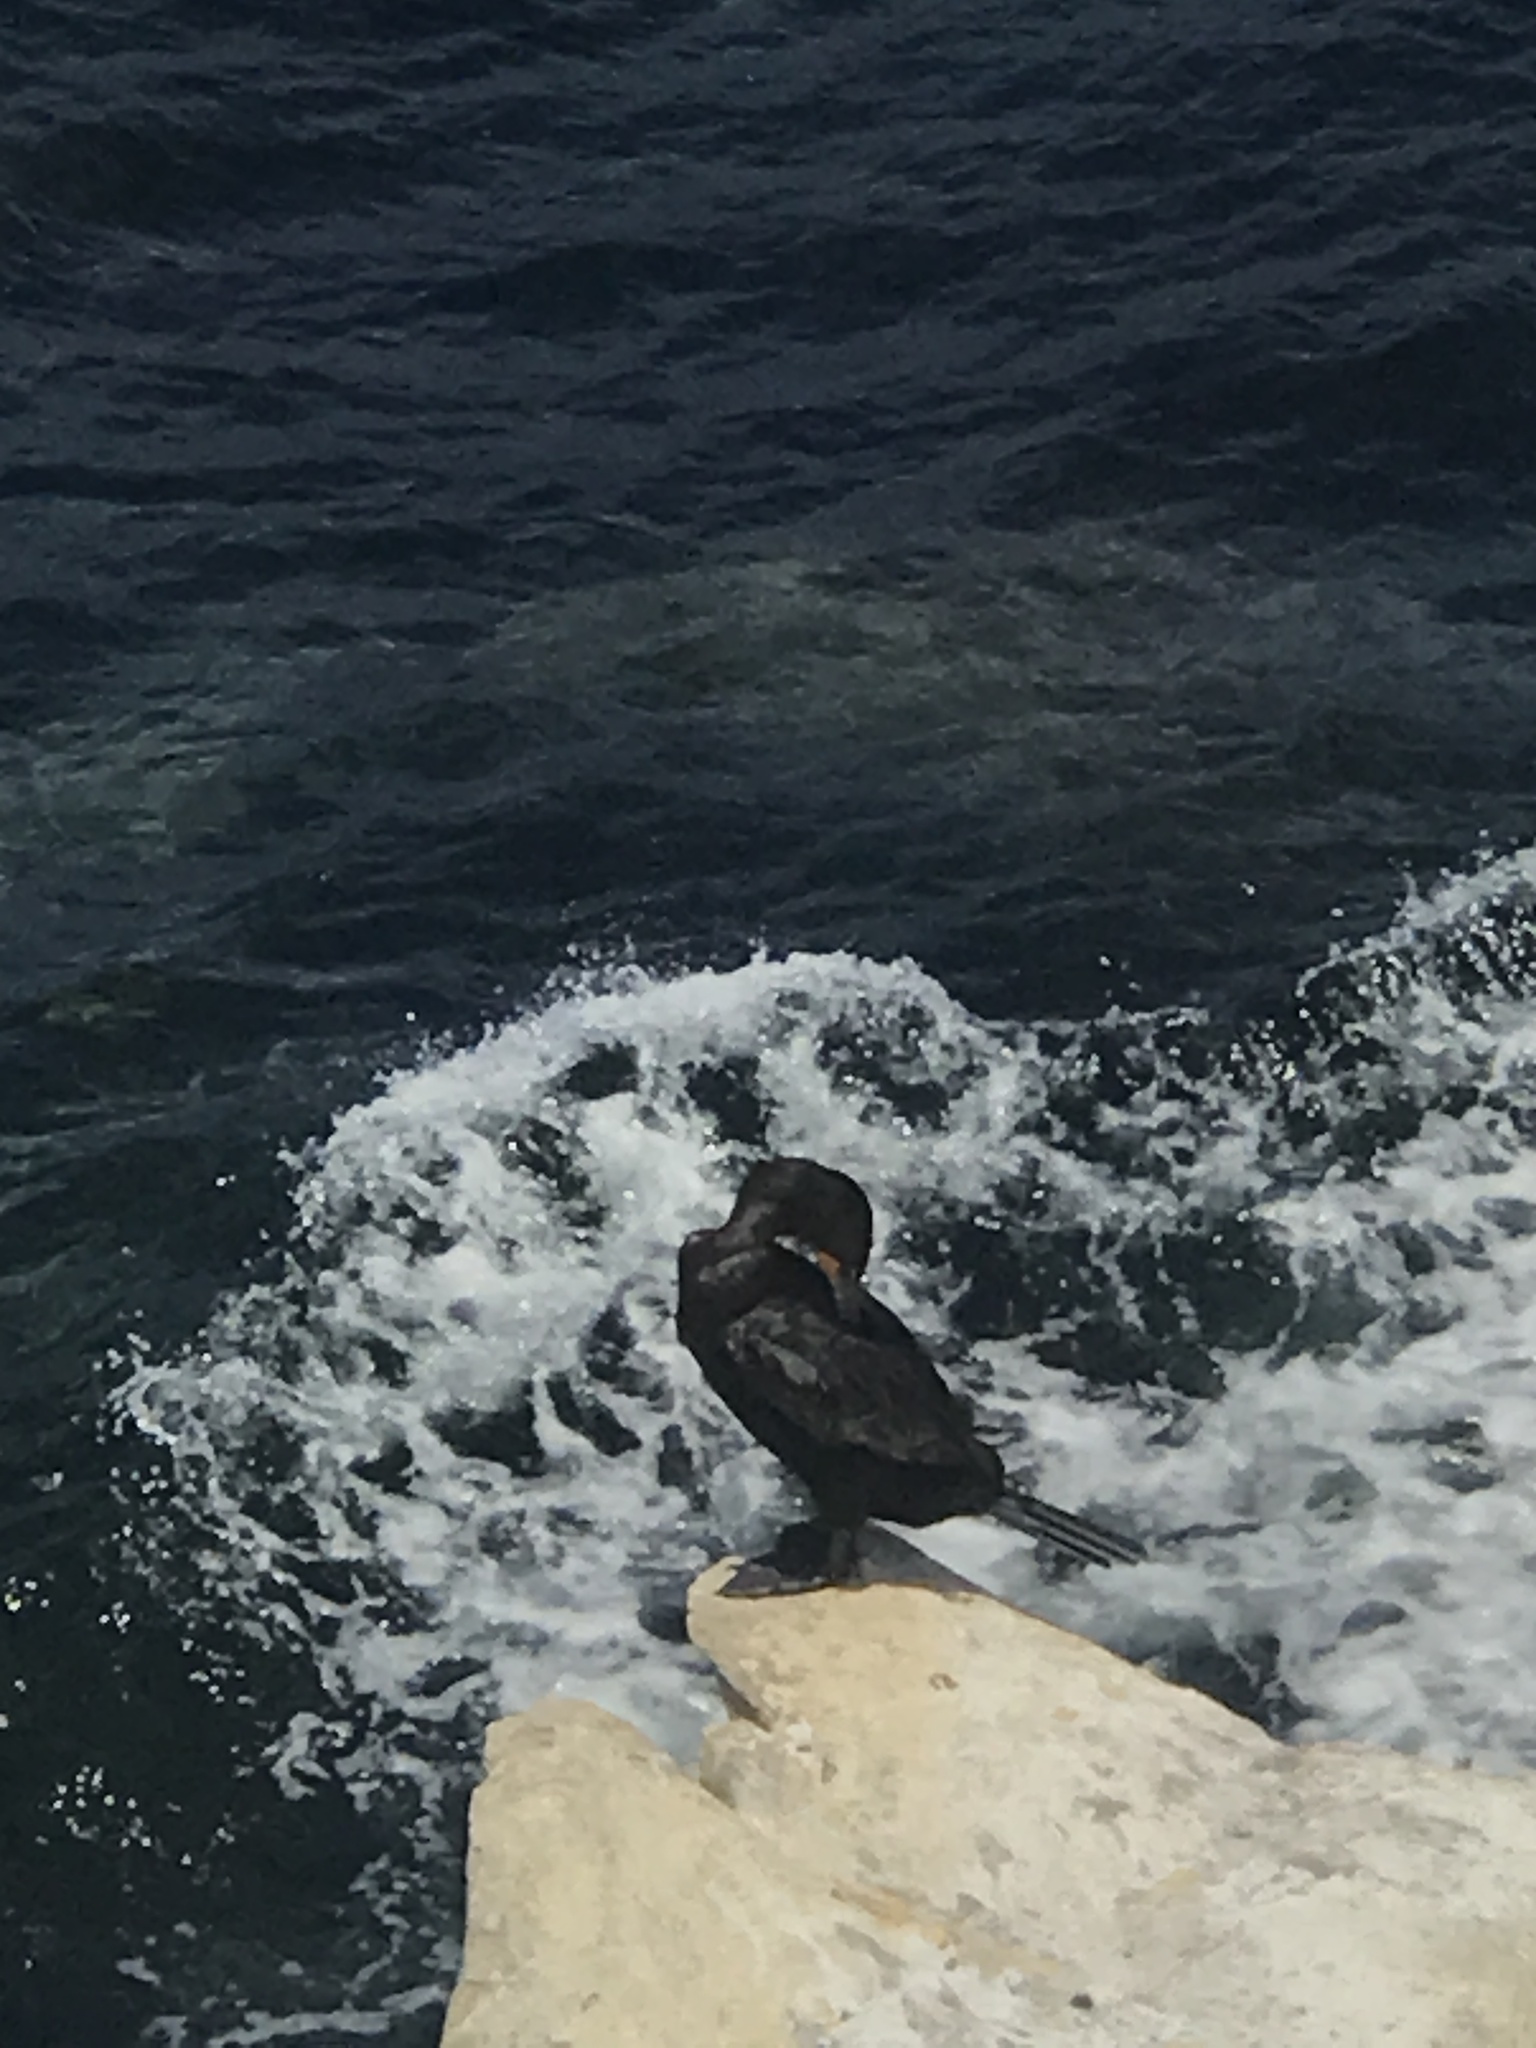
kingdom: Animalia
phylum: Chordata
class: Aves
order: Suliformes
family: Phalacrocoracidae
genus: Phalacrocorax
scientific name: Phalacrocorax auritus
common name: Double-crested cormorant
